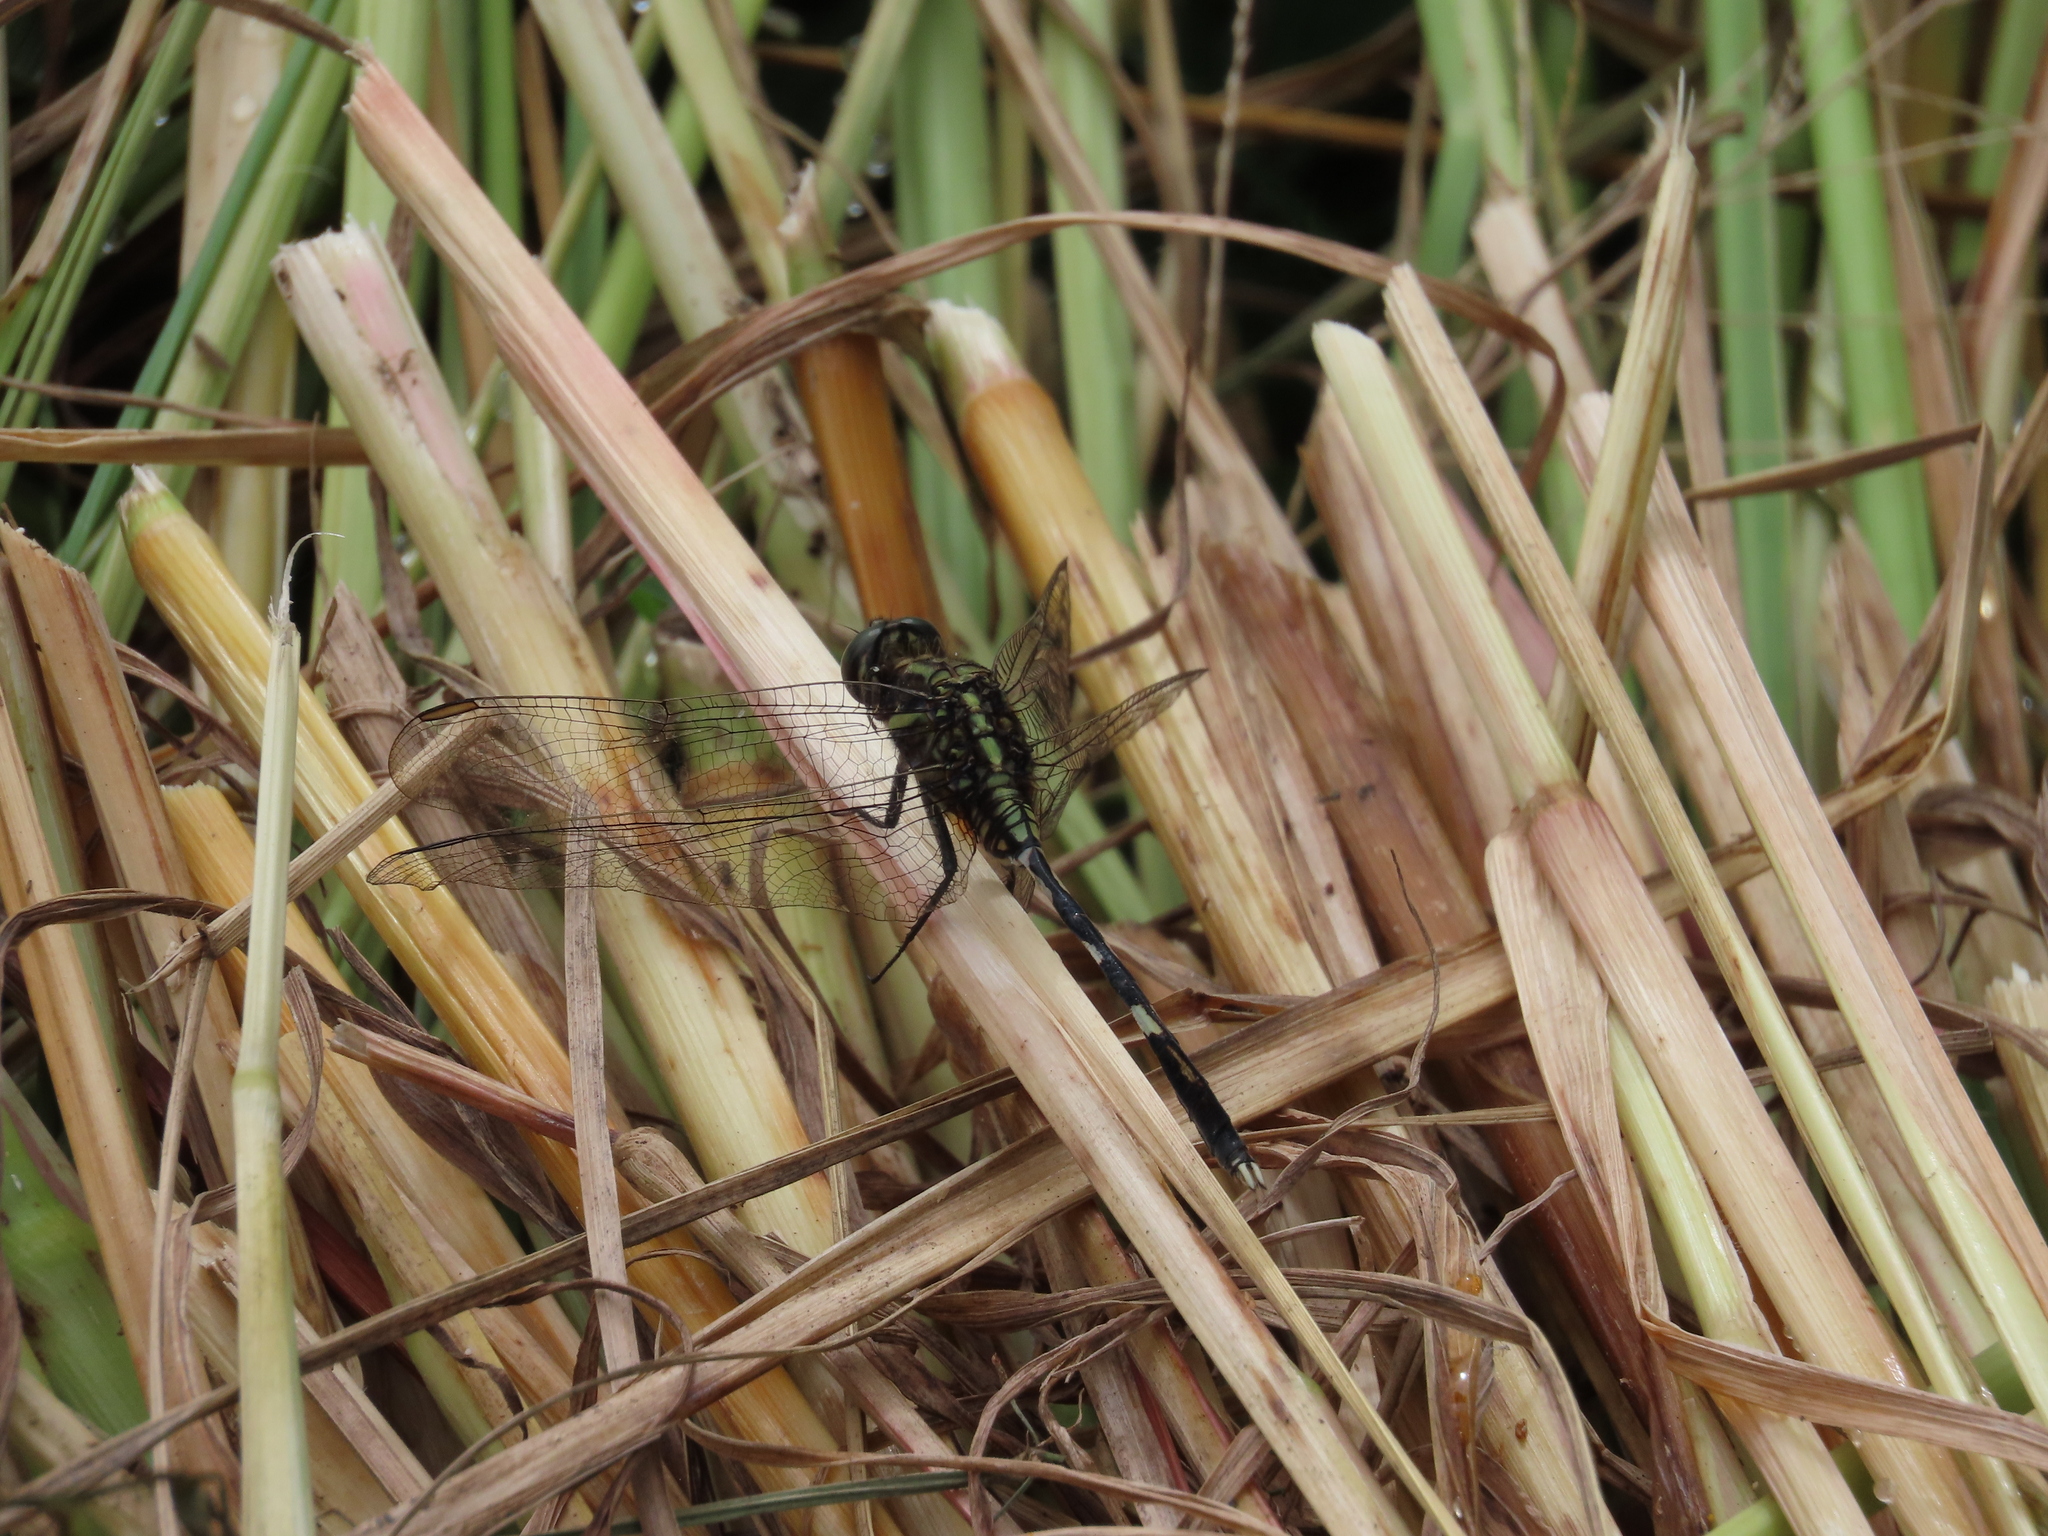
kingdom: Animalia
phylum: Arthropoda
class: Insecta
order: Odonata
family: Libellulidae
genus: Orthetrum
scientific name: Orthetrum sabina
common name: Slender skimmer
